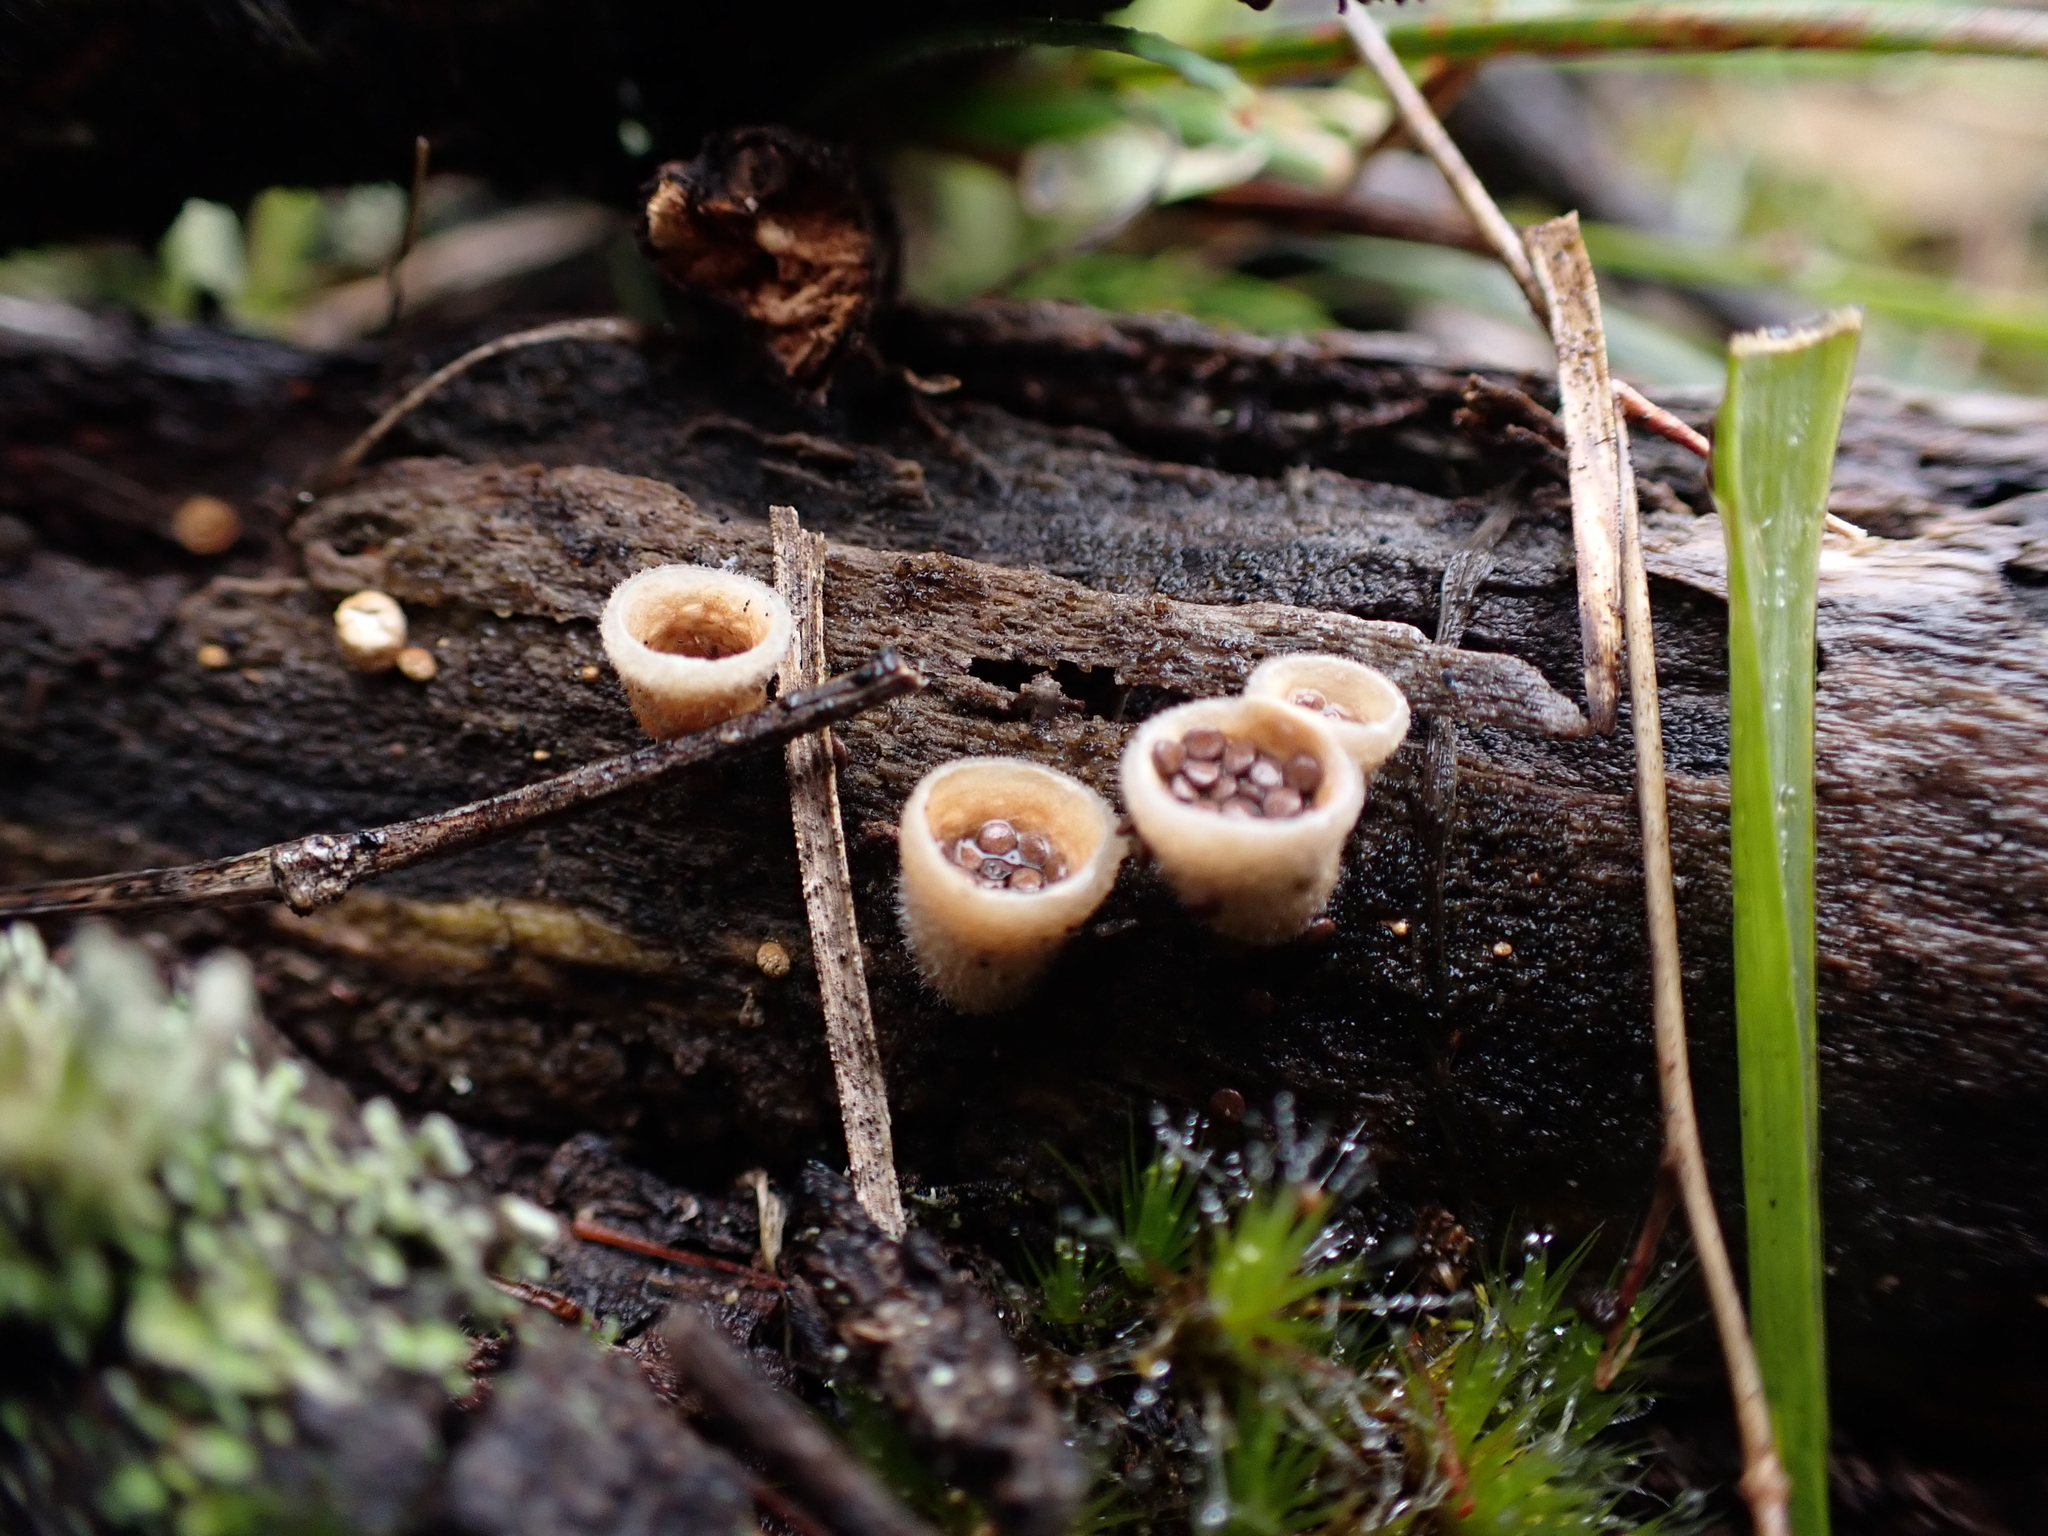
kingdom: Fungi
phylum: Basidiomycota
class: Agaricomycetes
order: Agaricales
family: Agaricaceae
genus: Nidula
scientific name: Nidula niveotomentosa
